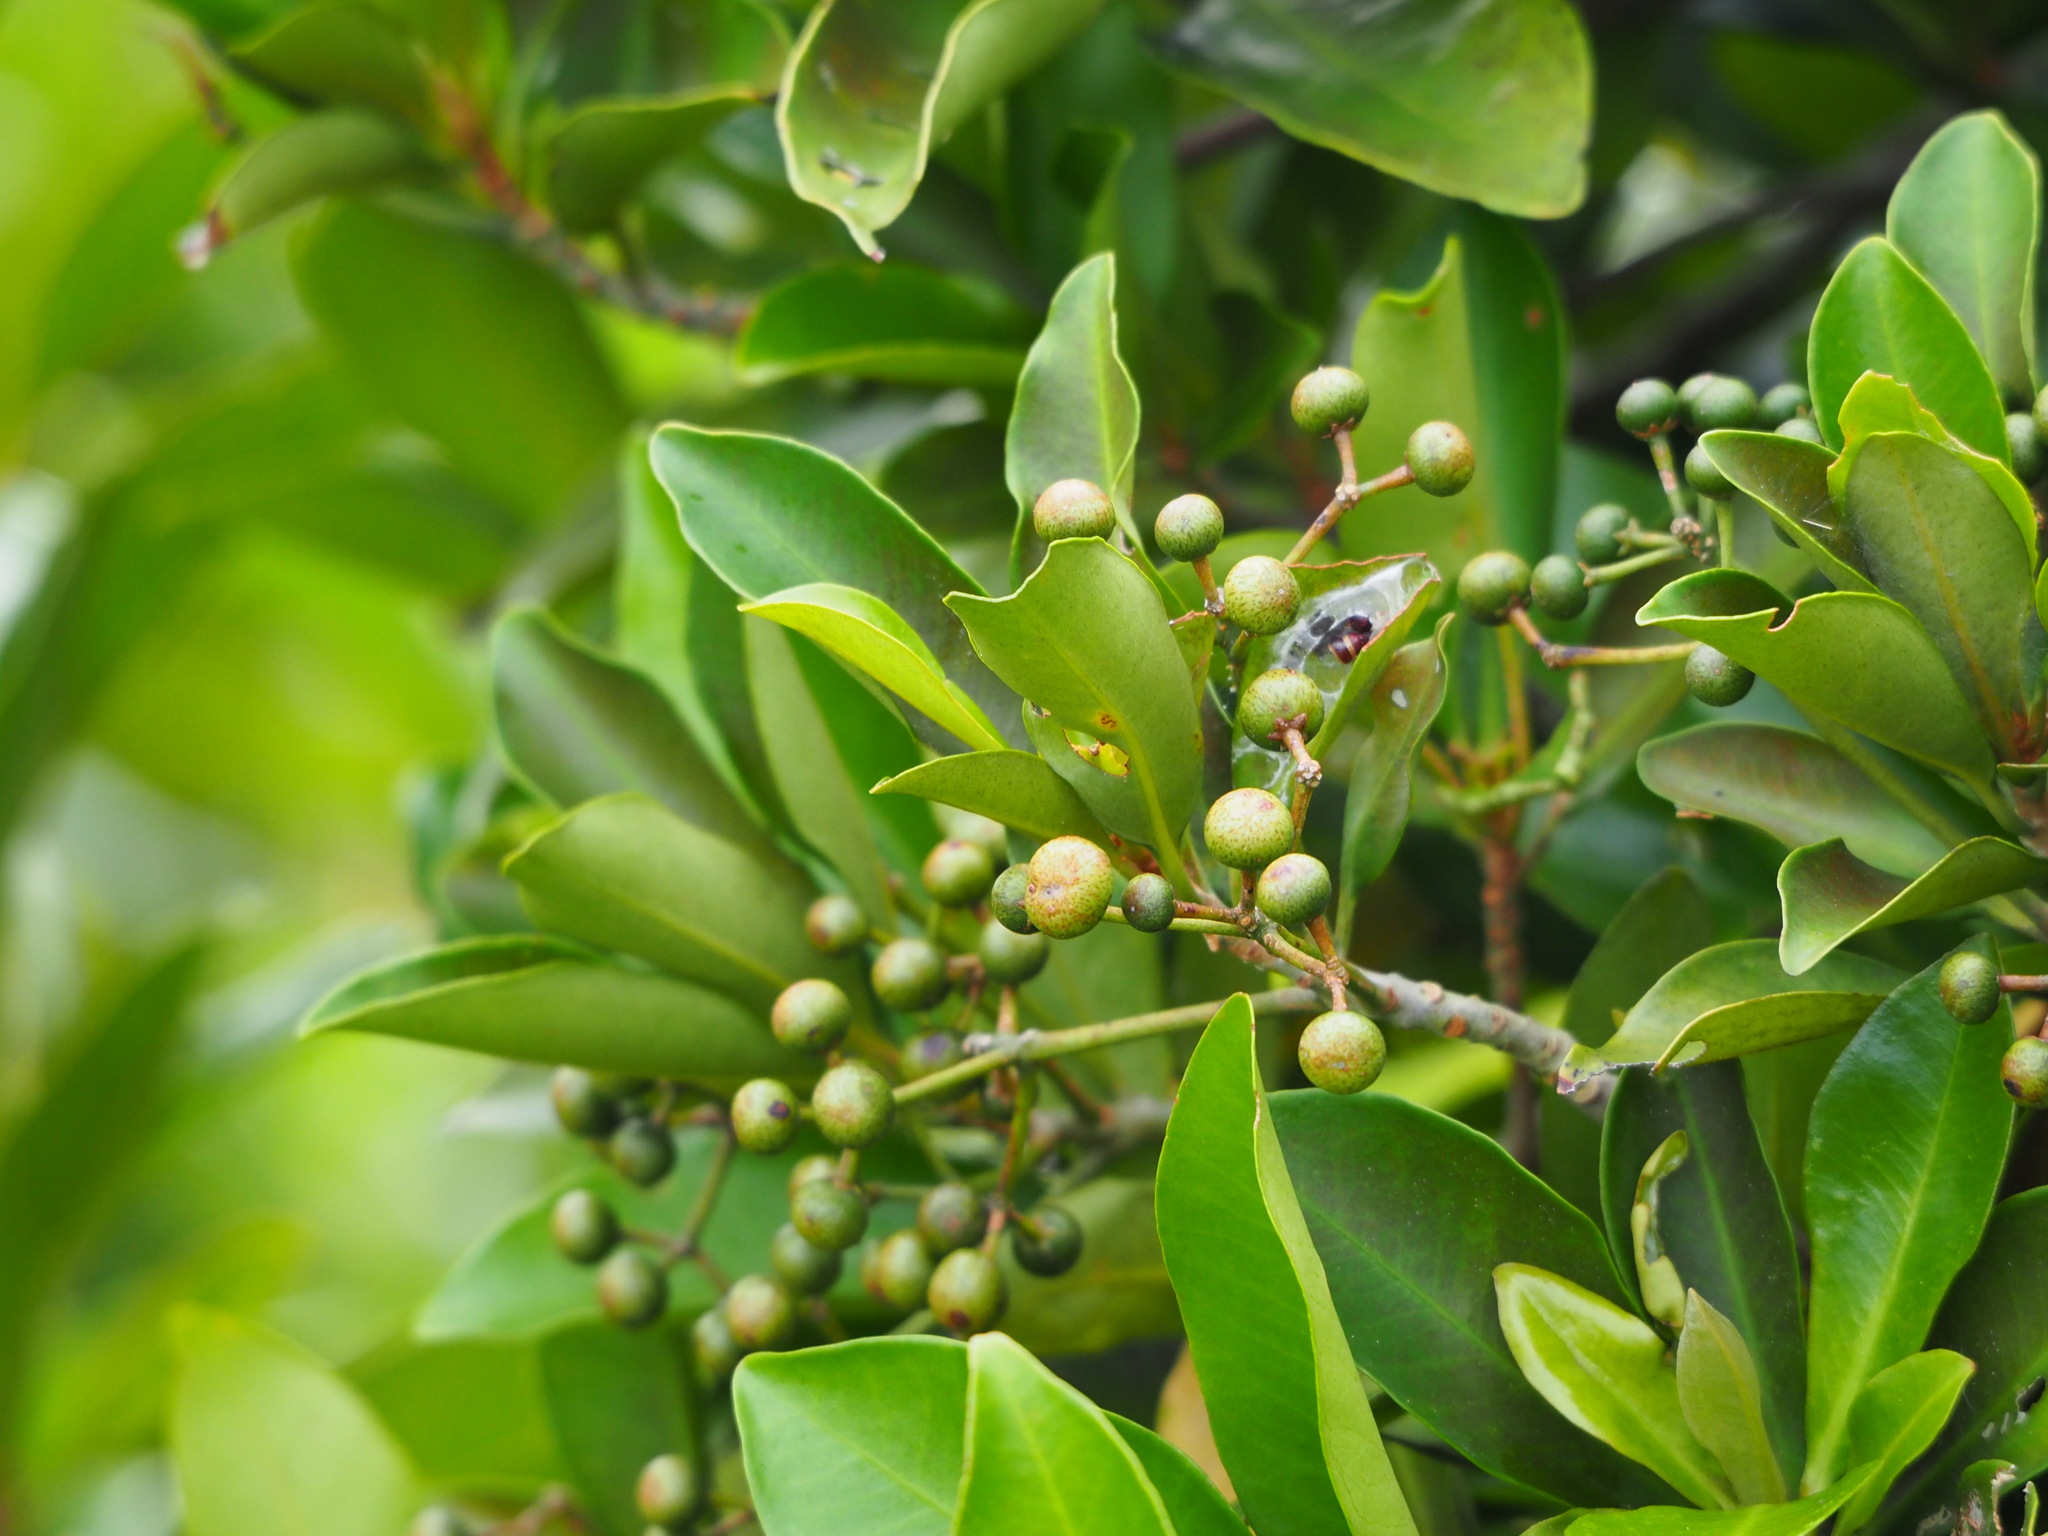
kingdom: Plantae
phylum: Tracheophyta
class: Magnoliopsida
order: Ericales
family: Primulaceae
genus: Ardisia
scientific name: Ardisia sieboldii
